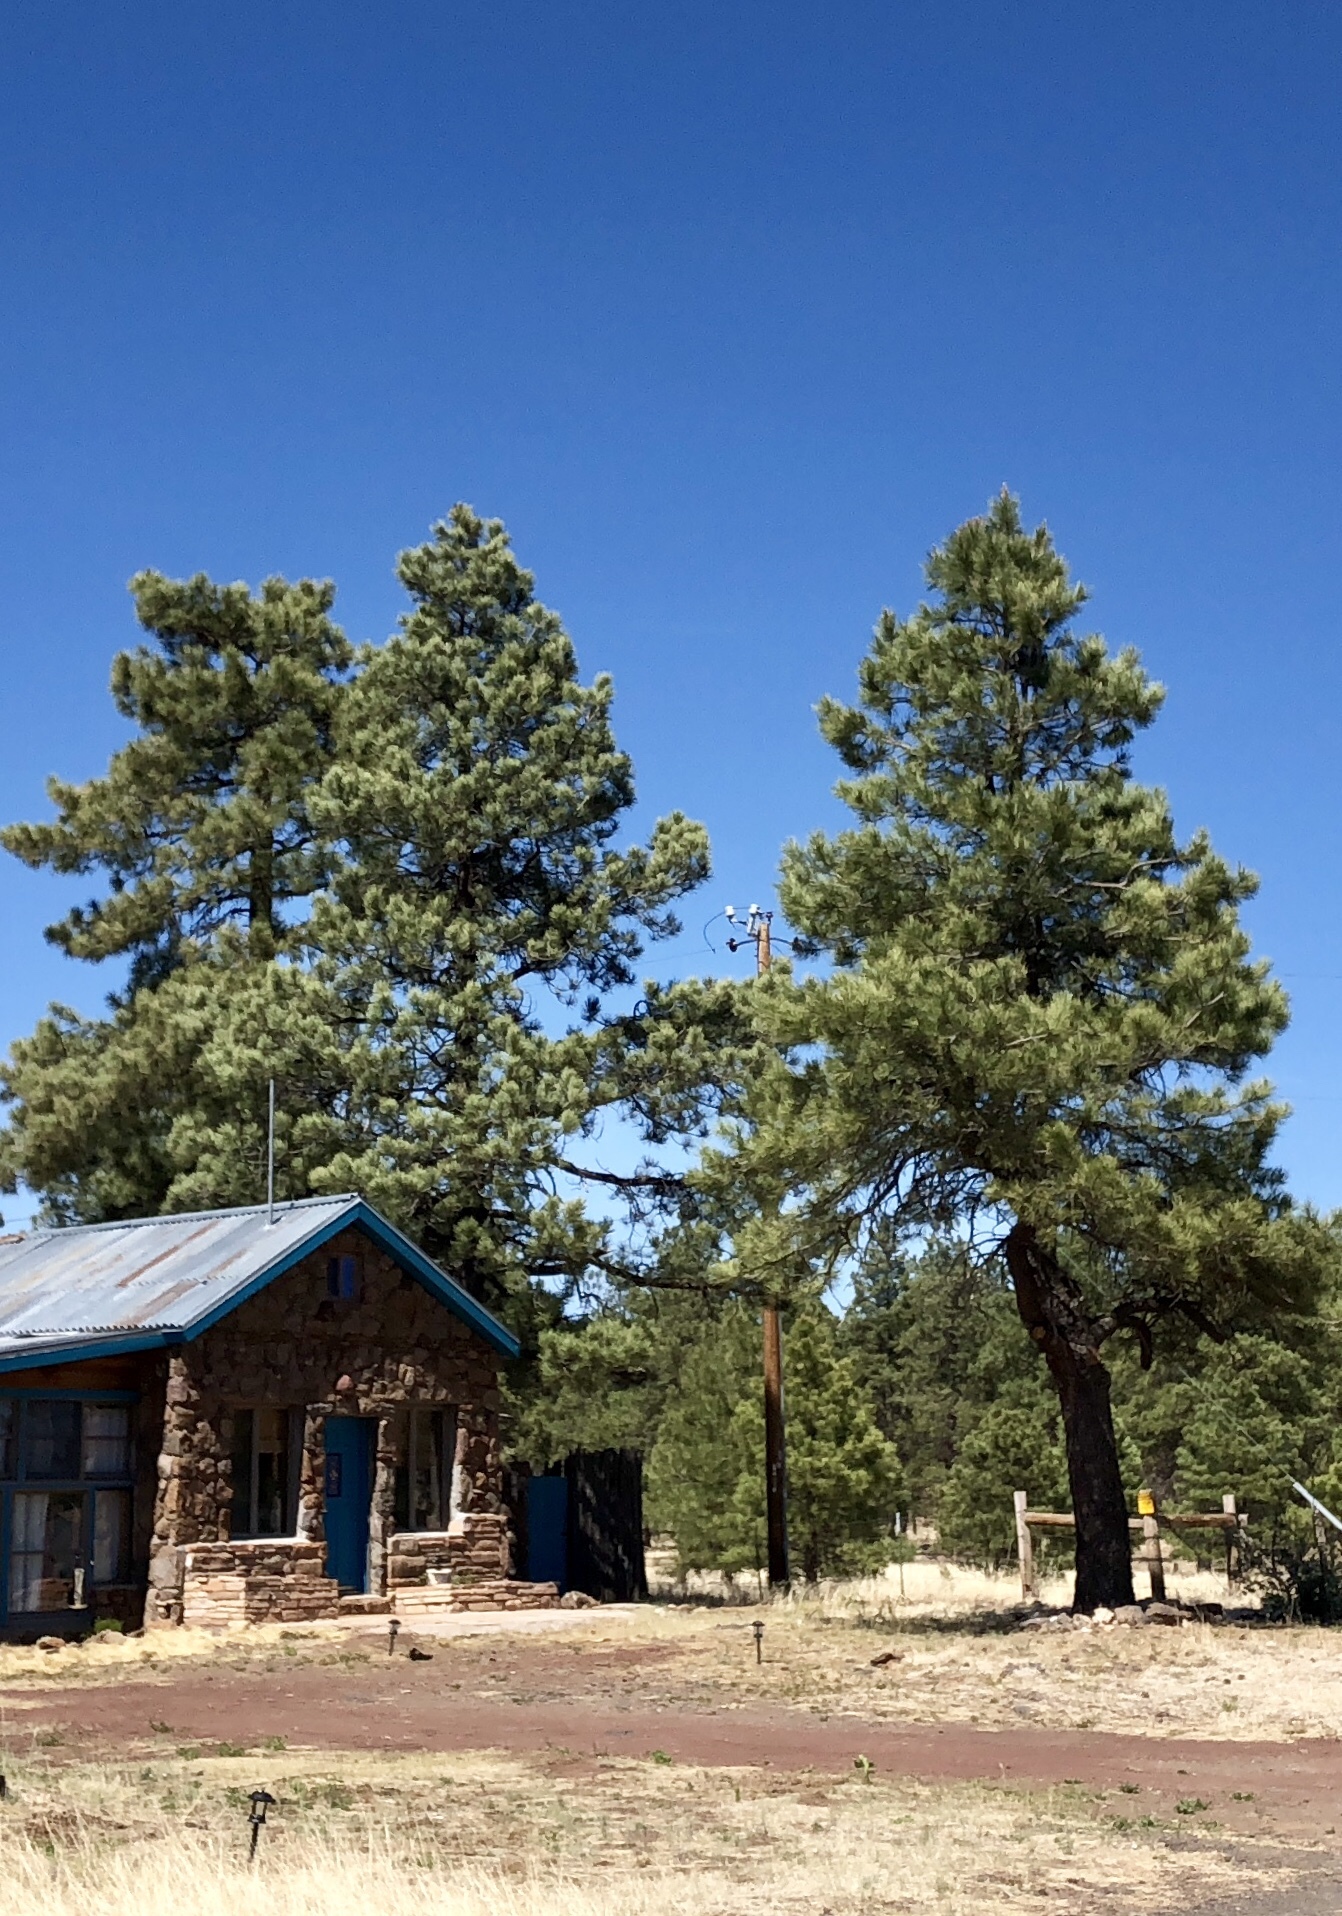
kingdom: Plantae
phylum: Tracheophyta
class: Pinopsida
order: Pinales
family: Pinaceae
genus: Pinus
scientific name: Pinus ponderosa
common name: Western yellow-pine
